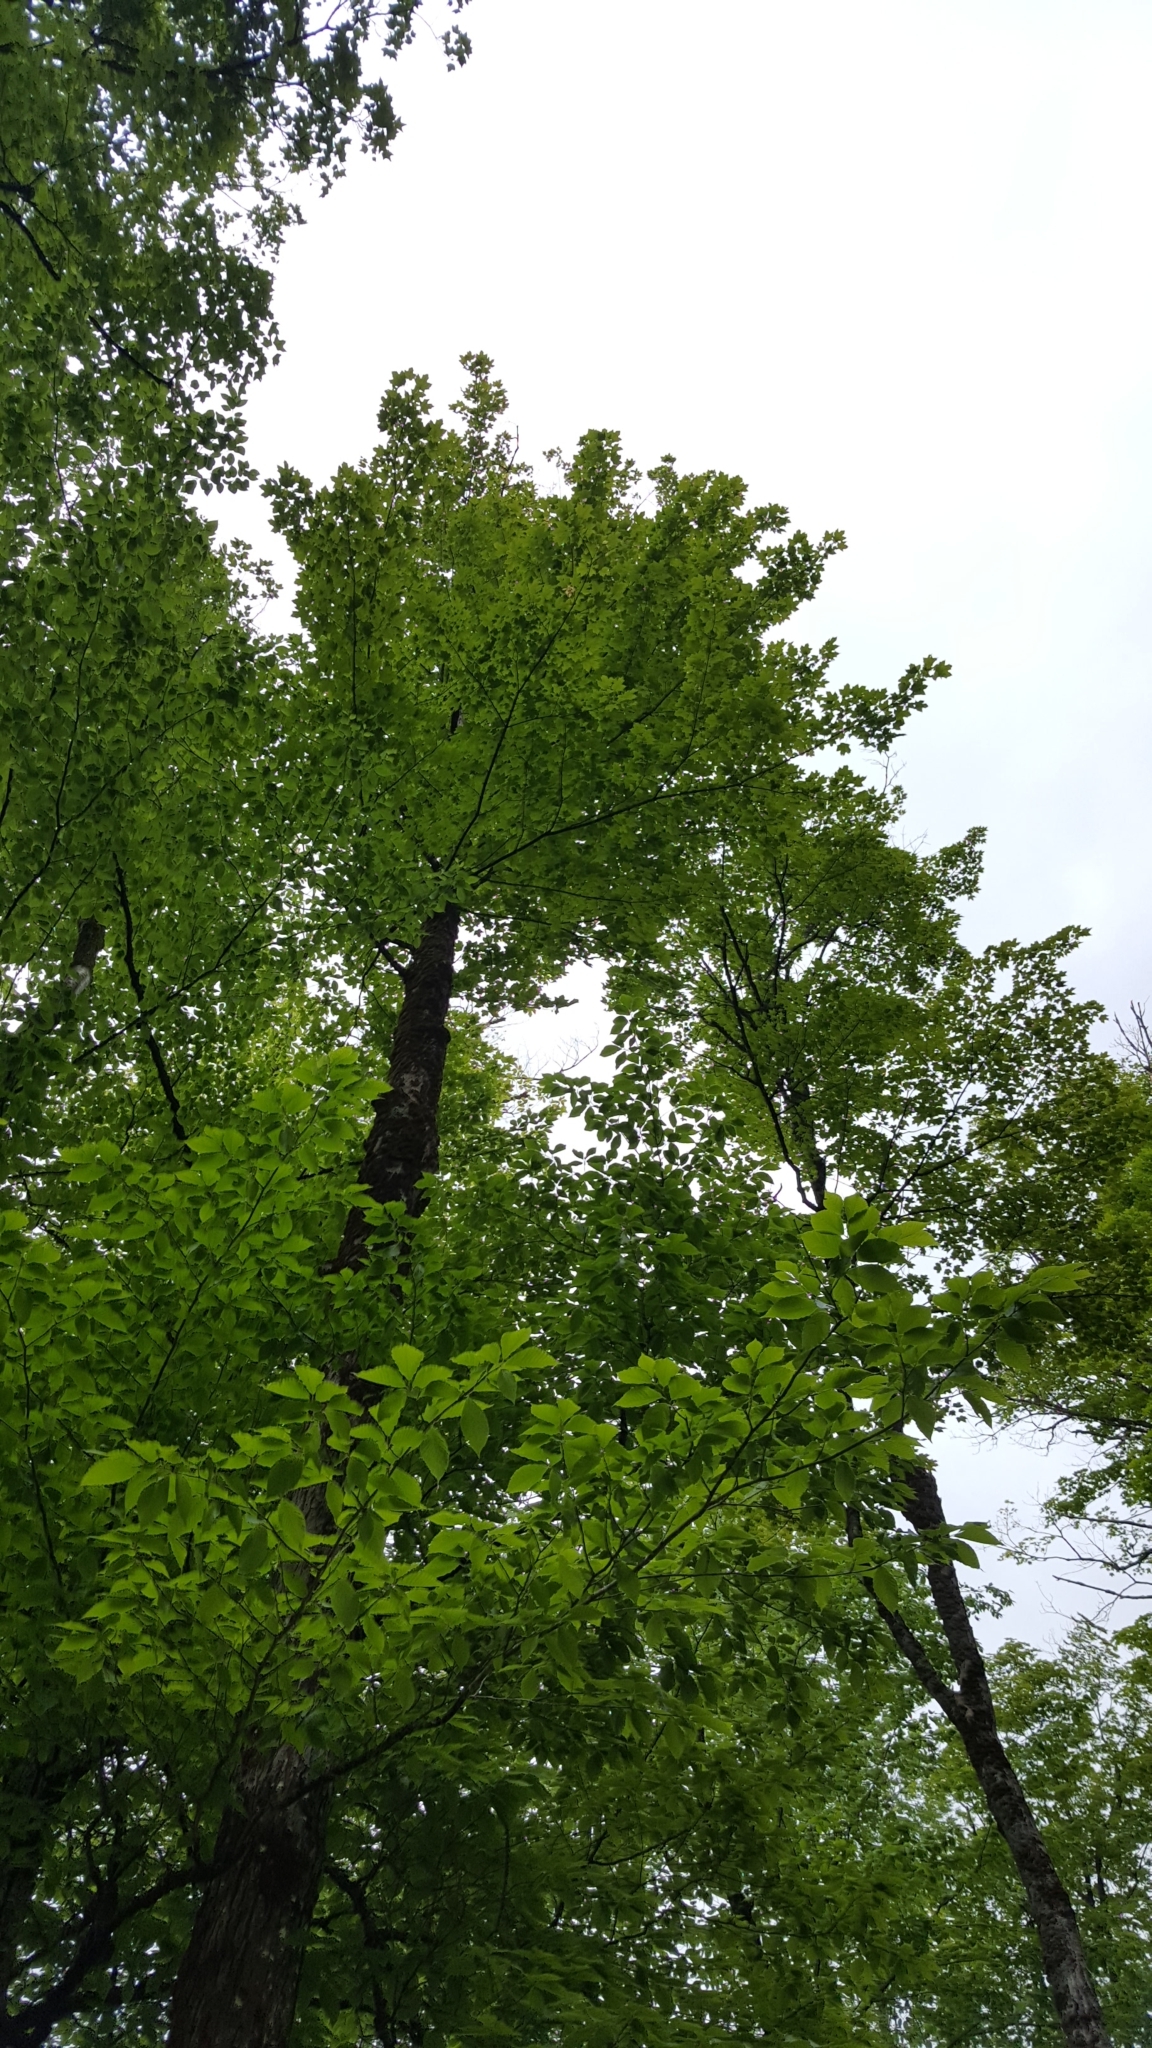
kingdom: Plantae
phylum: Tracheophyta
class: Magnoliopsida
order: Sapindales
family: Sapindaceae
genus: Acer
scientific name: Acer saccharum
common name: Sugar maple
